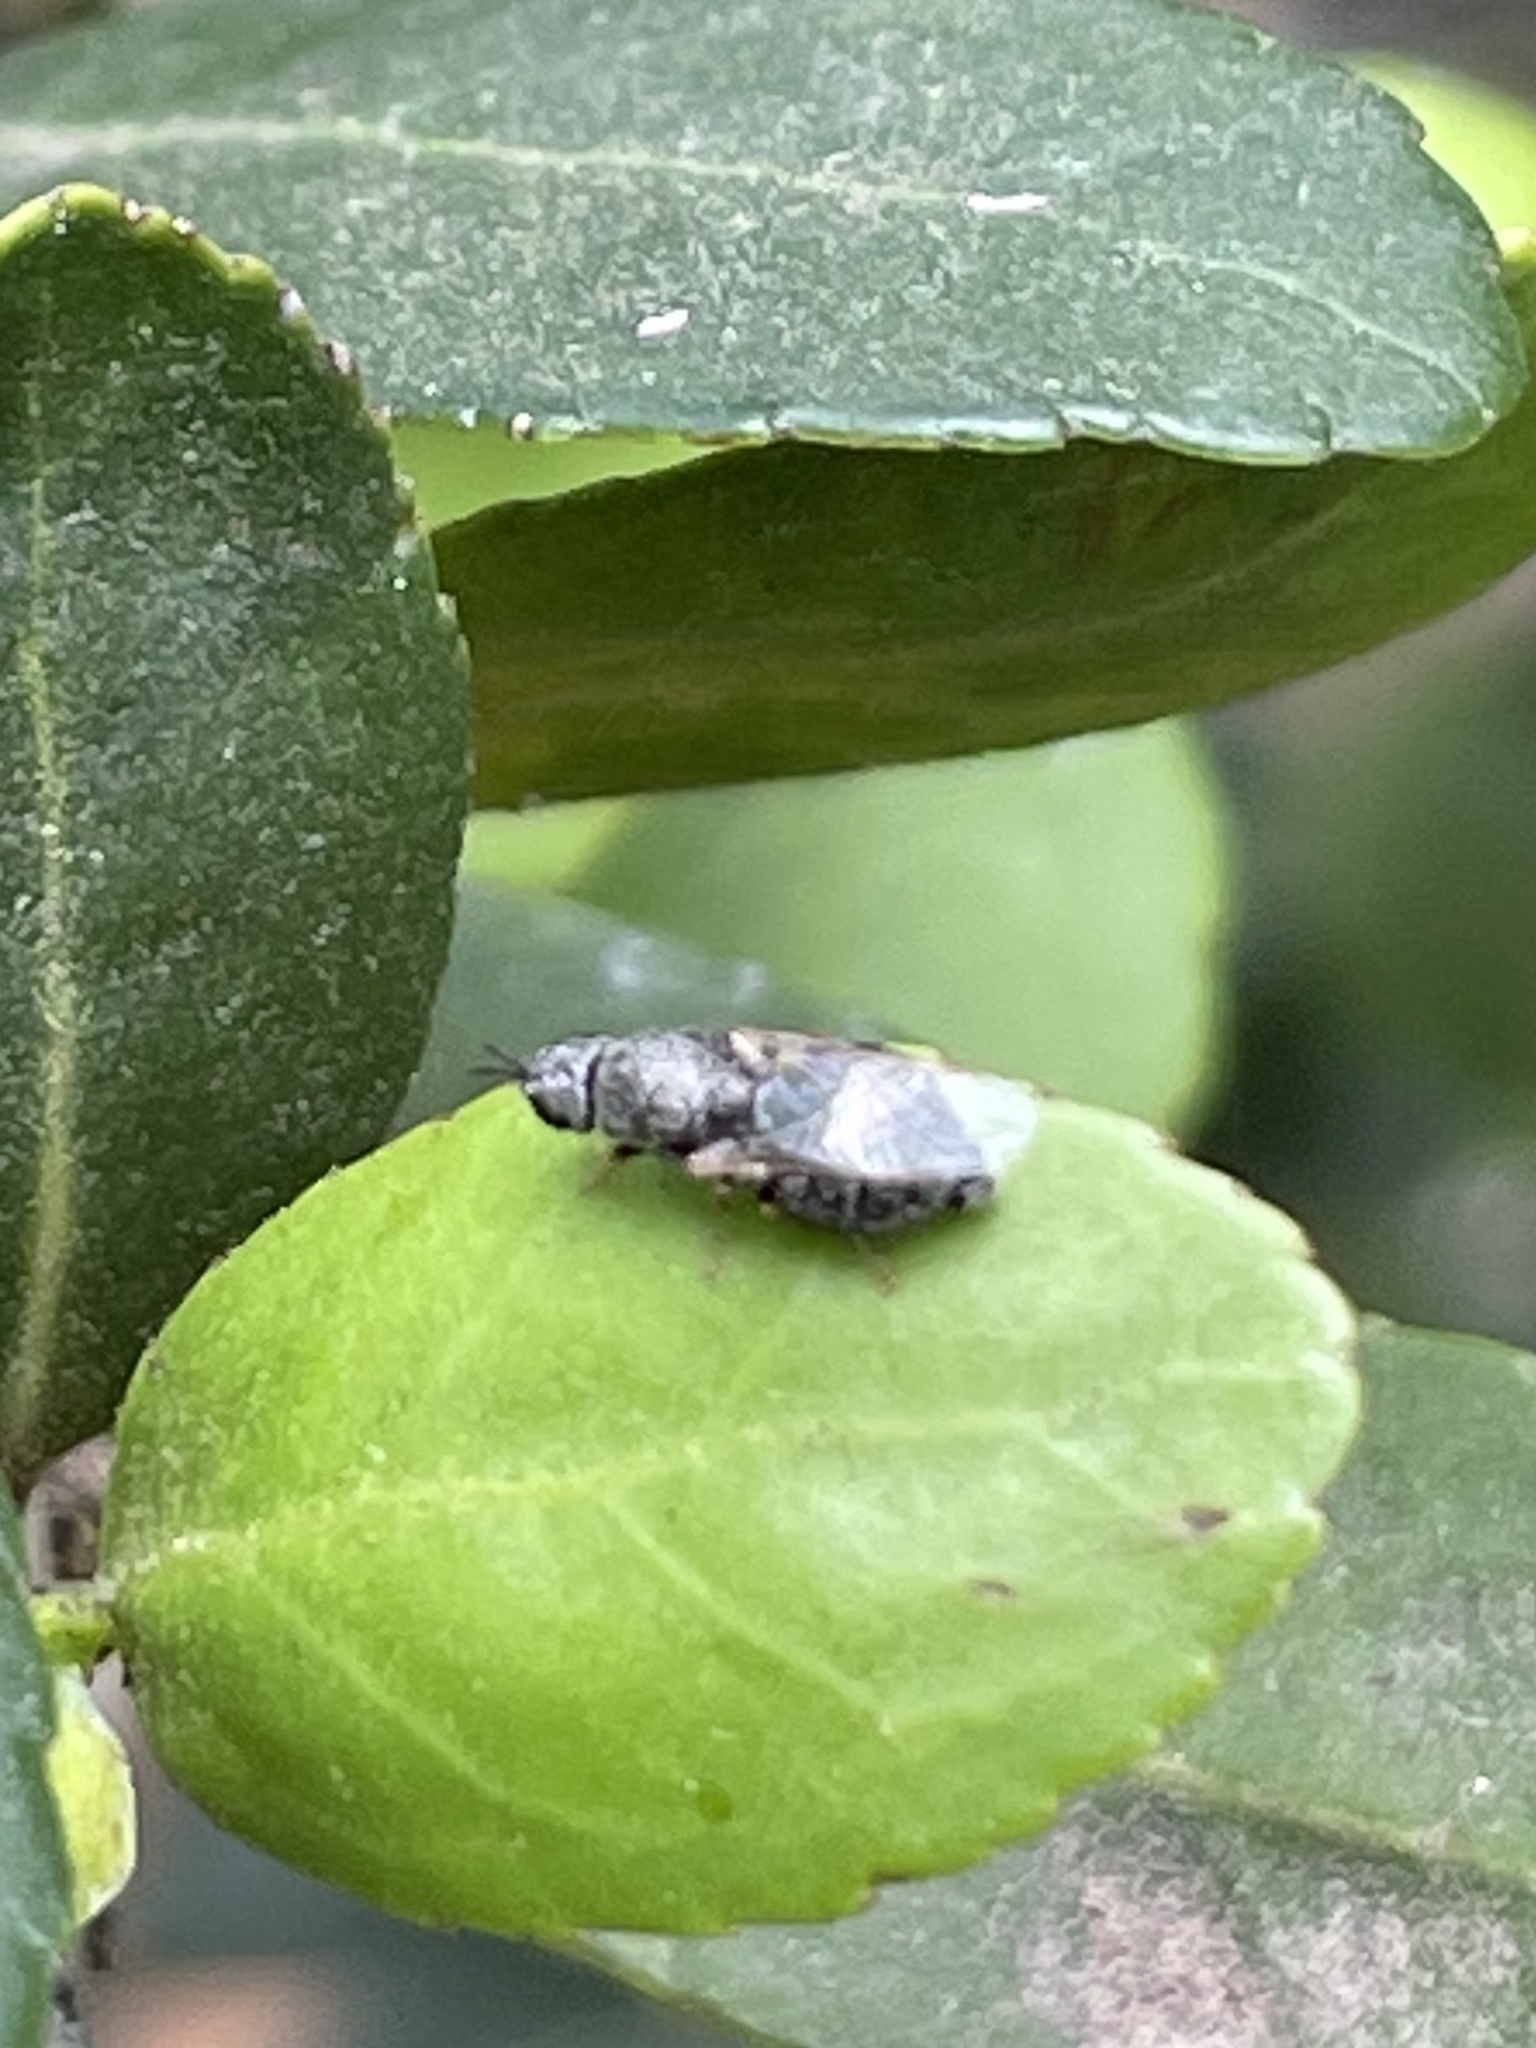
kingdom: Animalia
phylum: Arthropoda
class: Insecta
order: Diptera
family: Stratiomyidae
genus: Nemotelus
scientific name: Nemotelus bruesii
